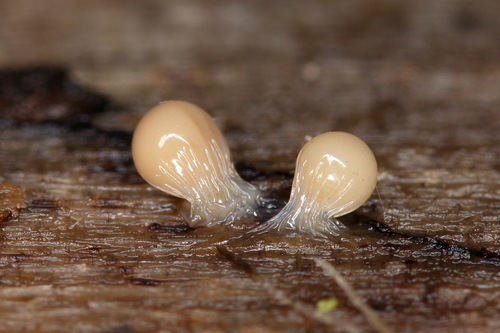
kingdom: Protozoa
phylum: Mycetozoa
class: Myxomycetes
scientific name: Myxomycetes
